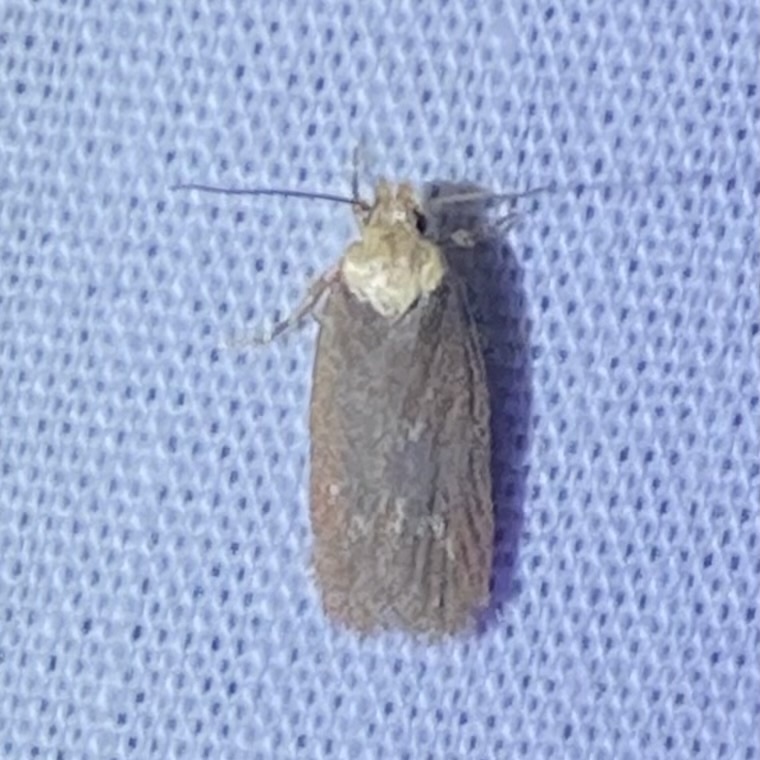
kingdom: Animalia
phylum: Arthropoda
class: Insecta
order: Lepidoptera
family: Depressariidae
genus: Depressaria
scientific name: Depressaria depressana
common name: Lost flat-body
